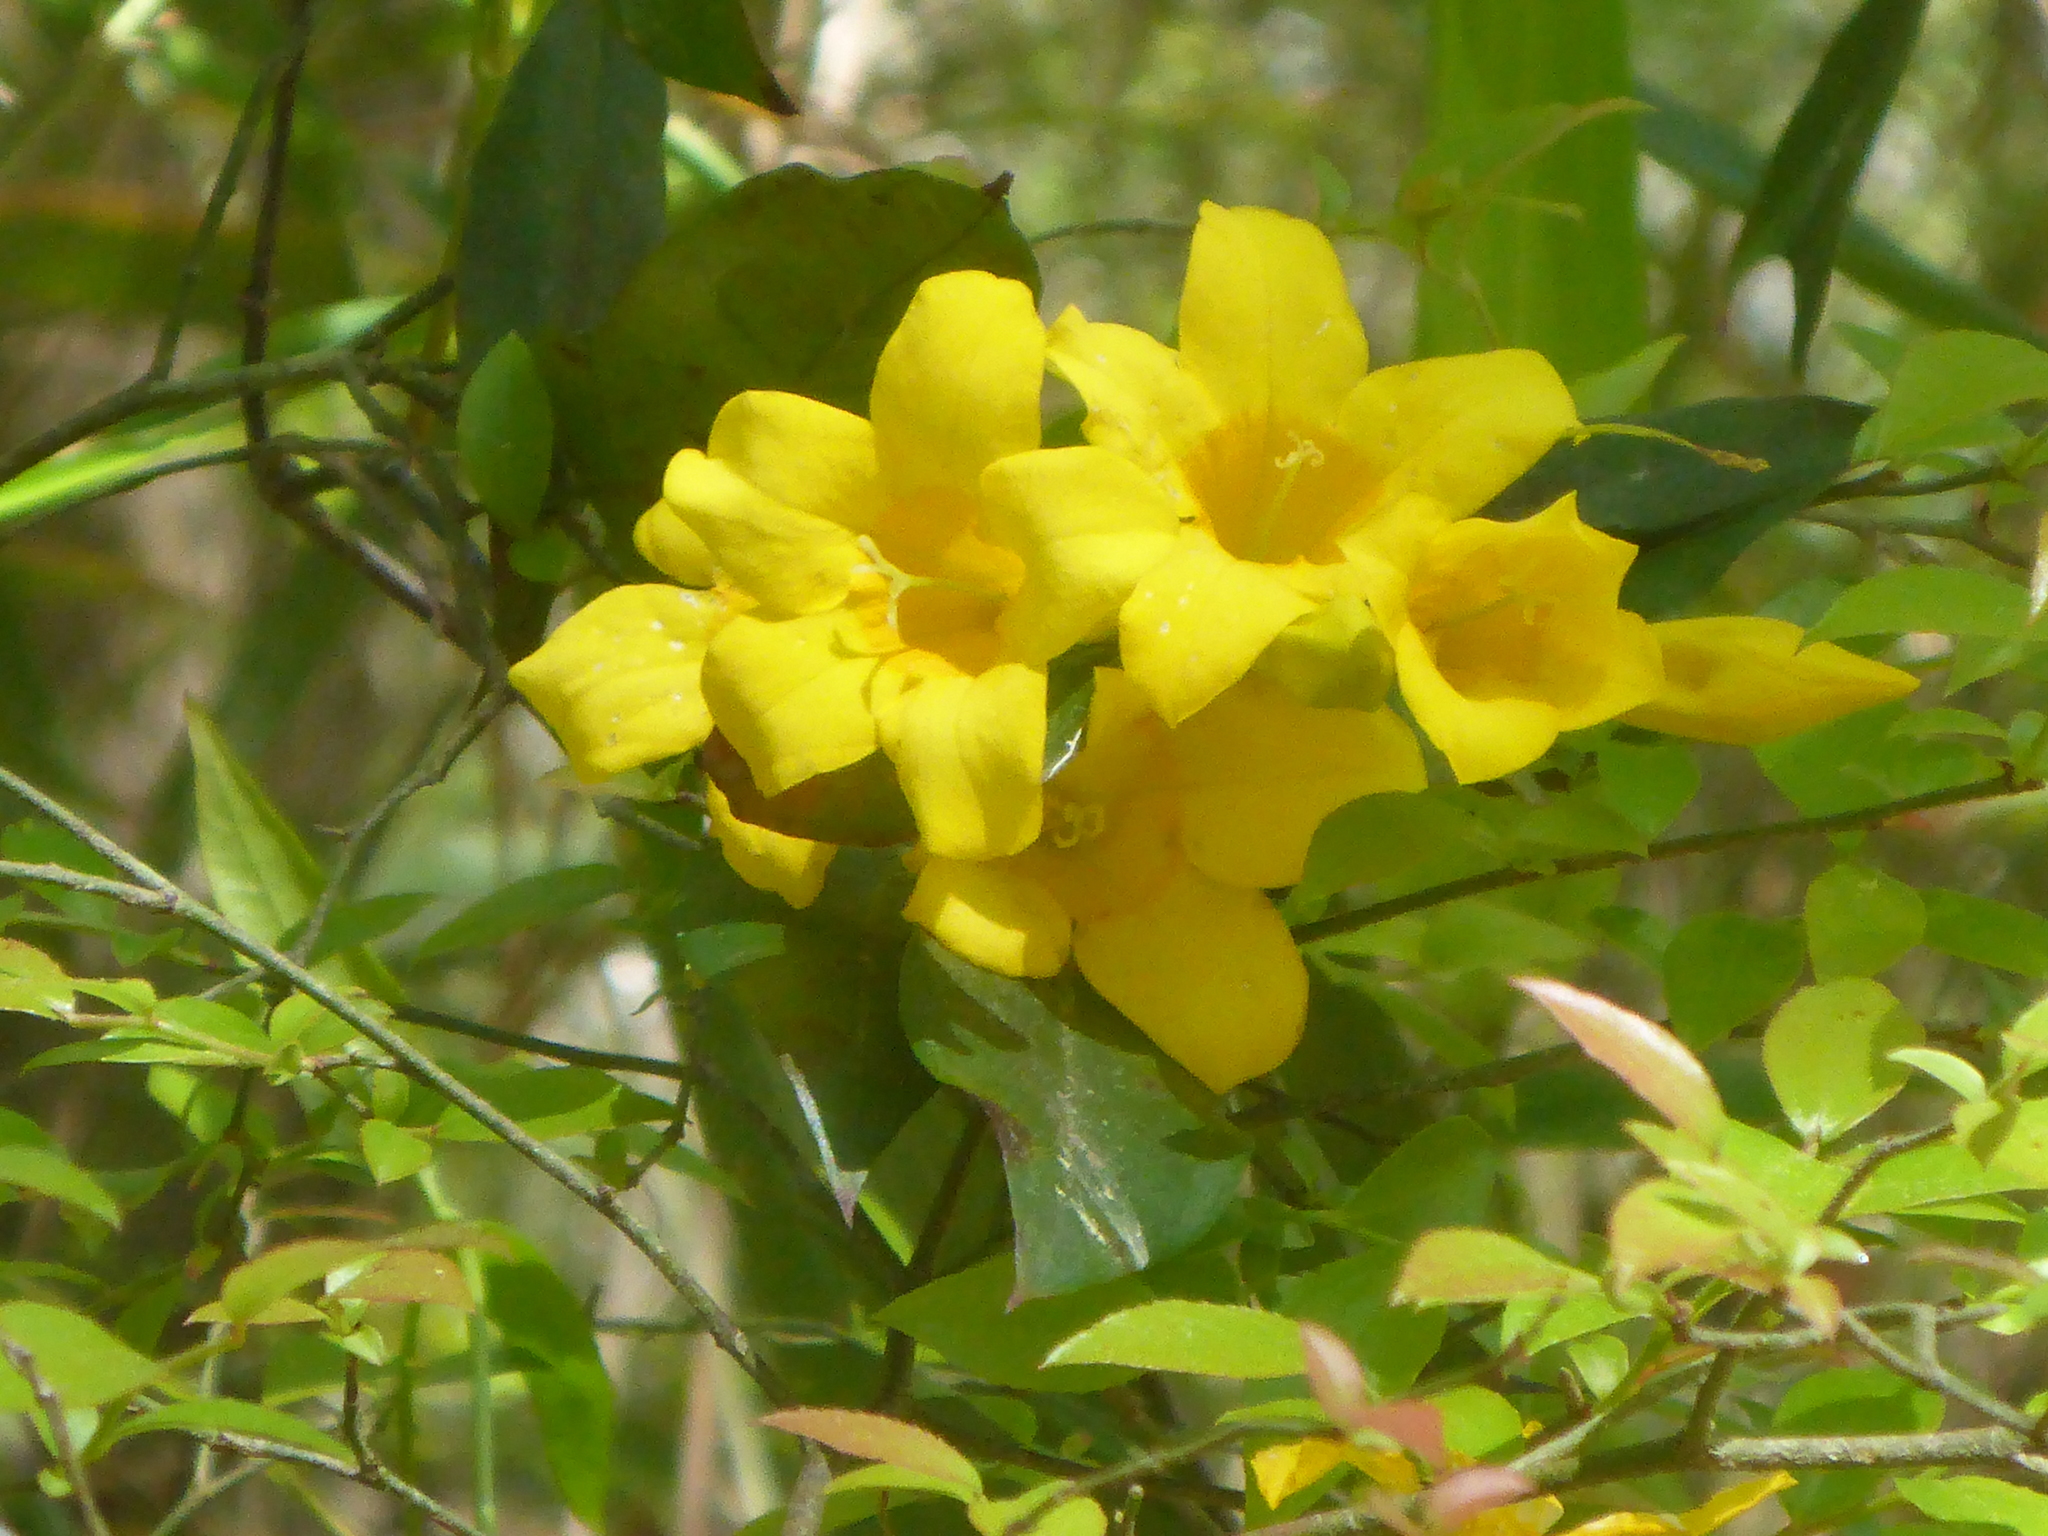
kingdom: Plantae
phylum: Tracheophyta
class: Magnoliopsida
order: Gentianales
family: Gelsemiaceae
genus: Gelsemium
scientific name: Gelsemium sempervirens
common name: Carolina-jasmine
